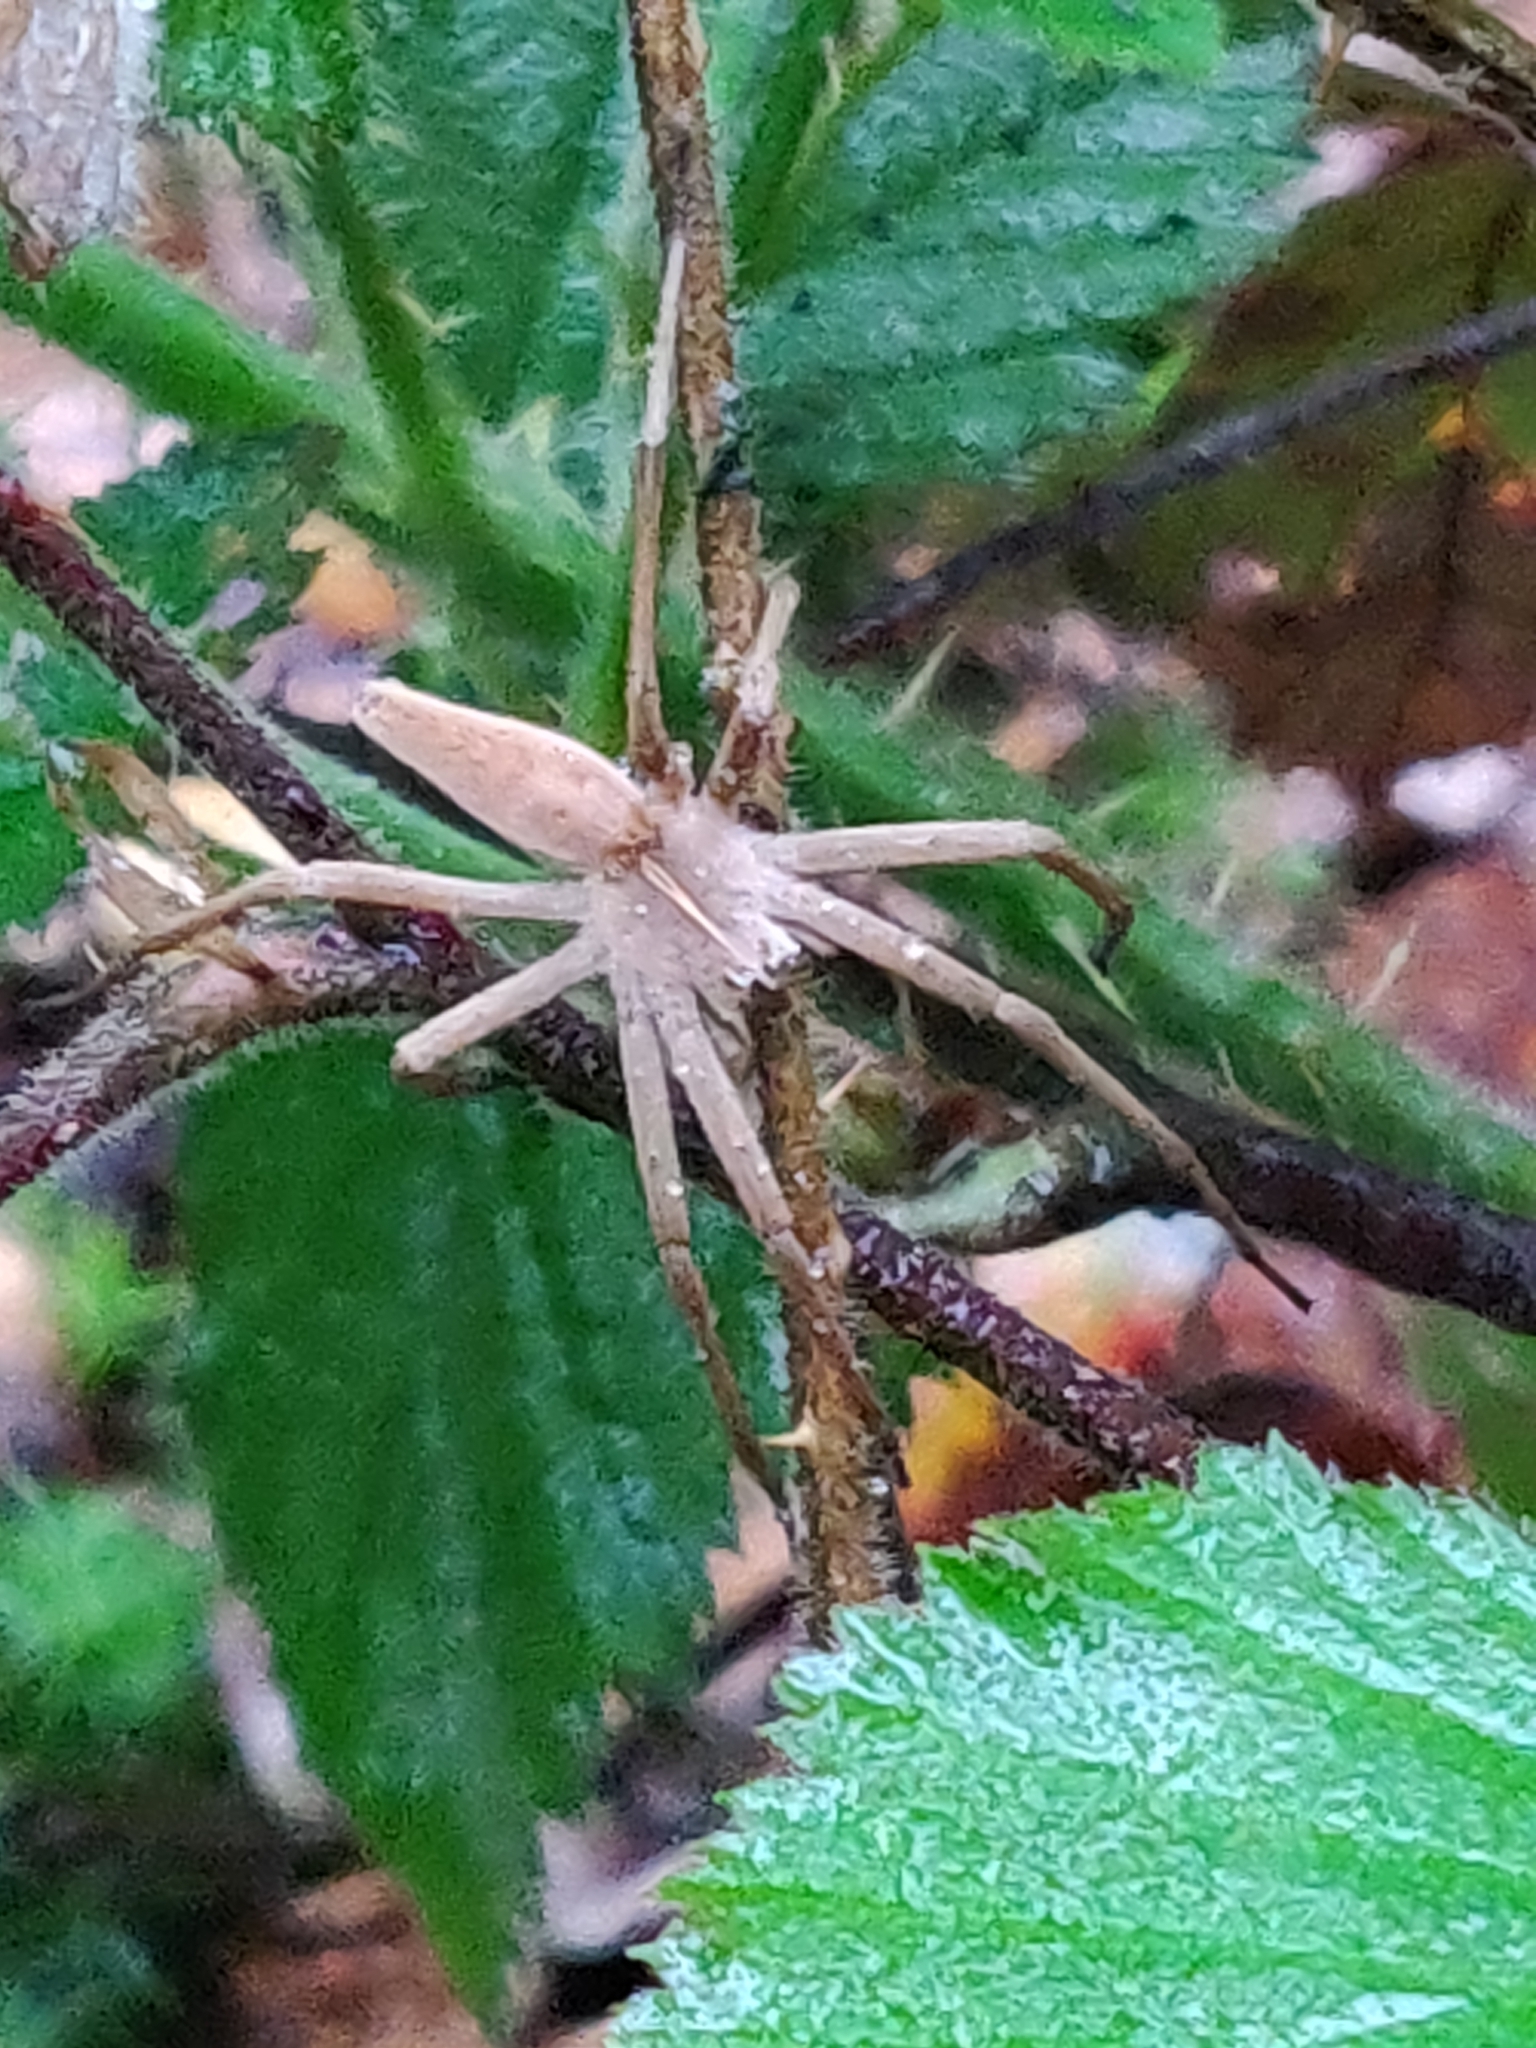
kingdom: Animalia
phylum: Arthropoda
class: Arachnida
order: Araneae
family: Pisauridae
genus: Pisaura
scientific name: Pisaura mirabilis
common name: Tent spider
